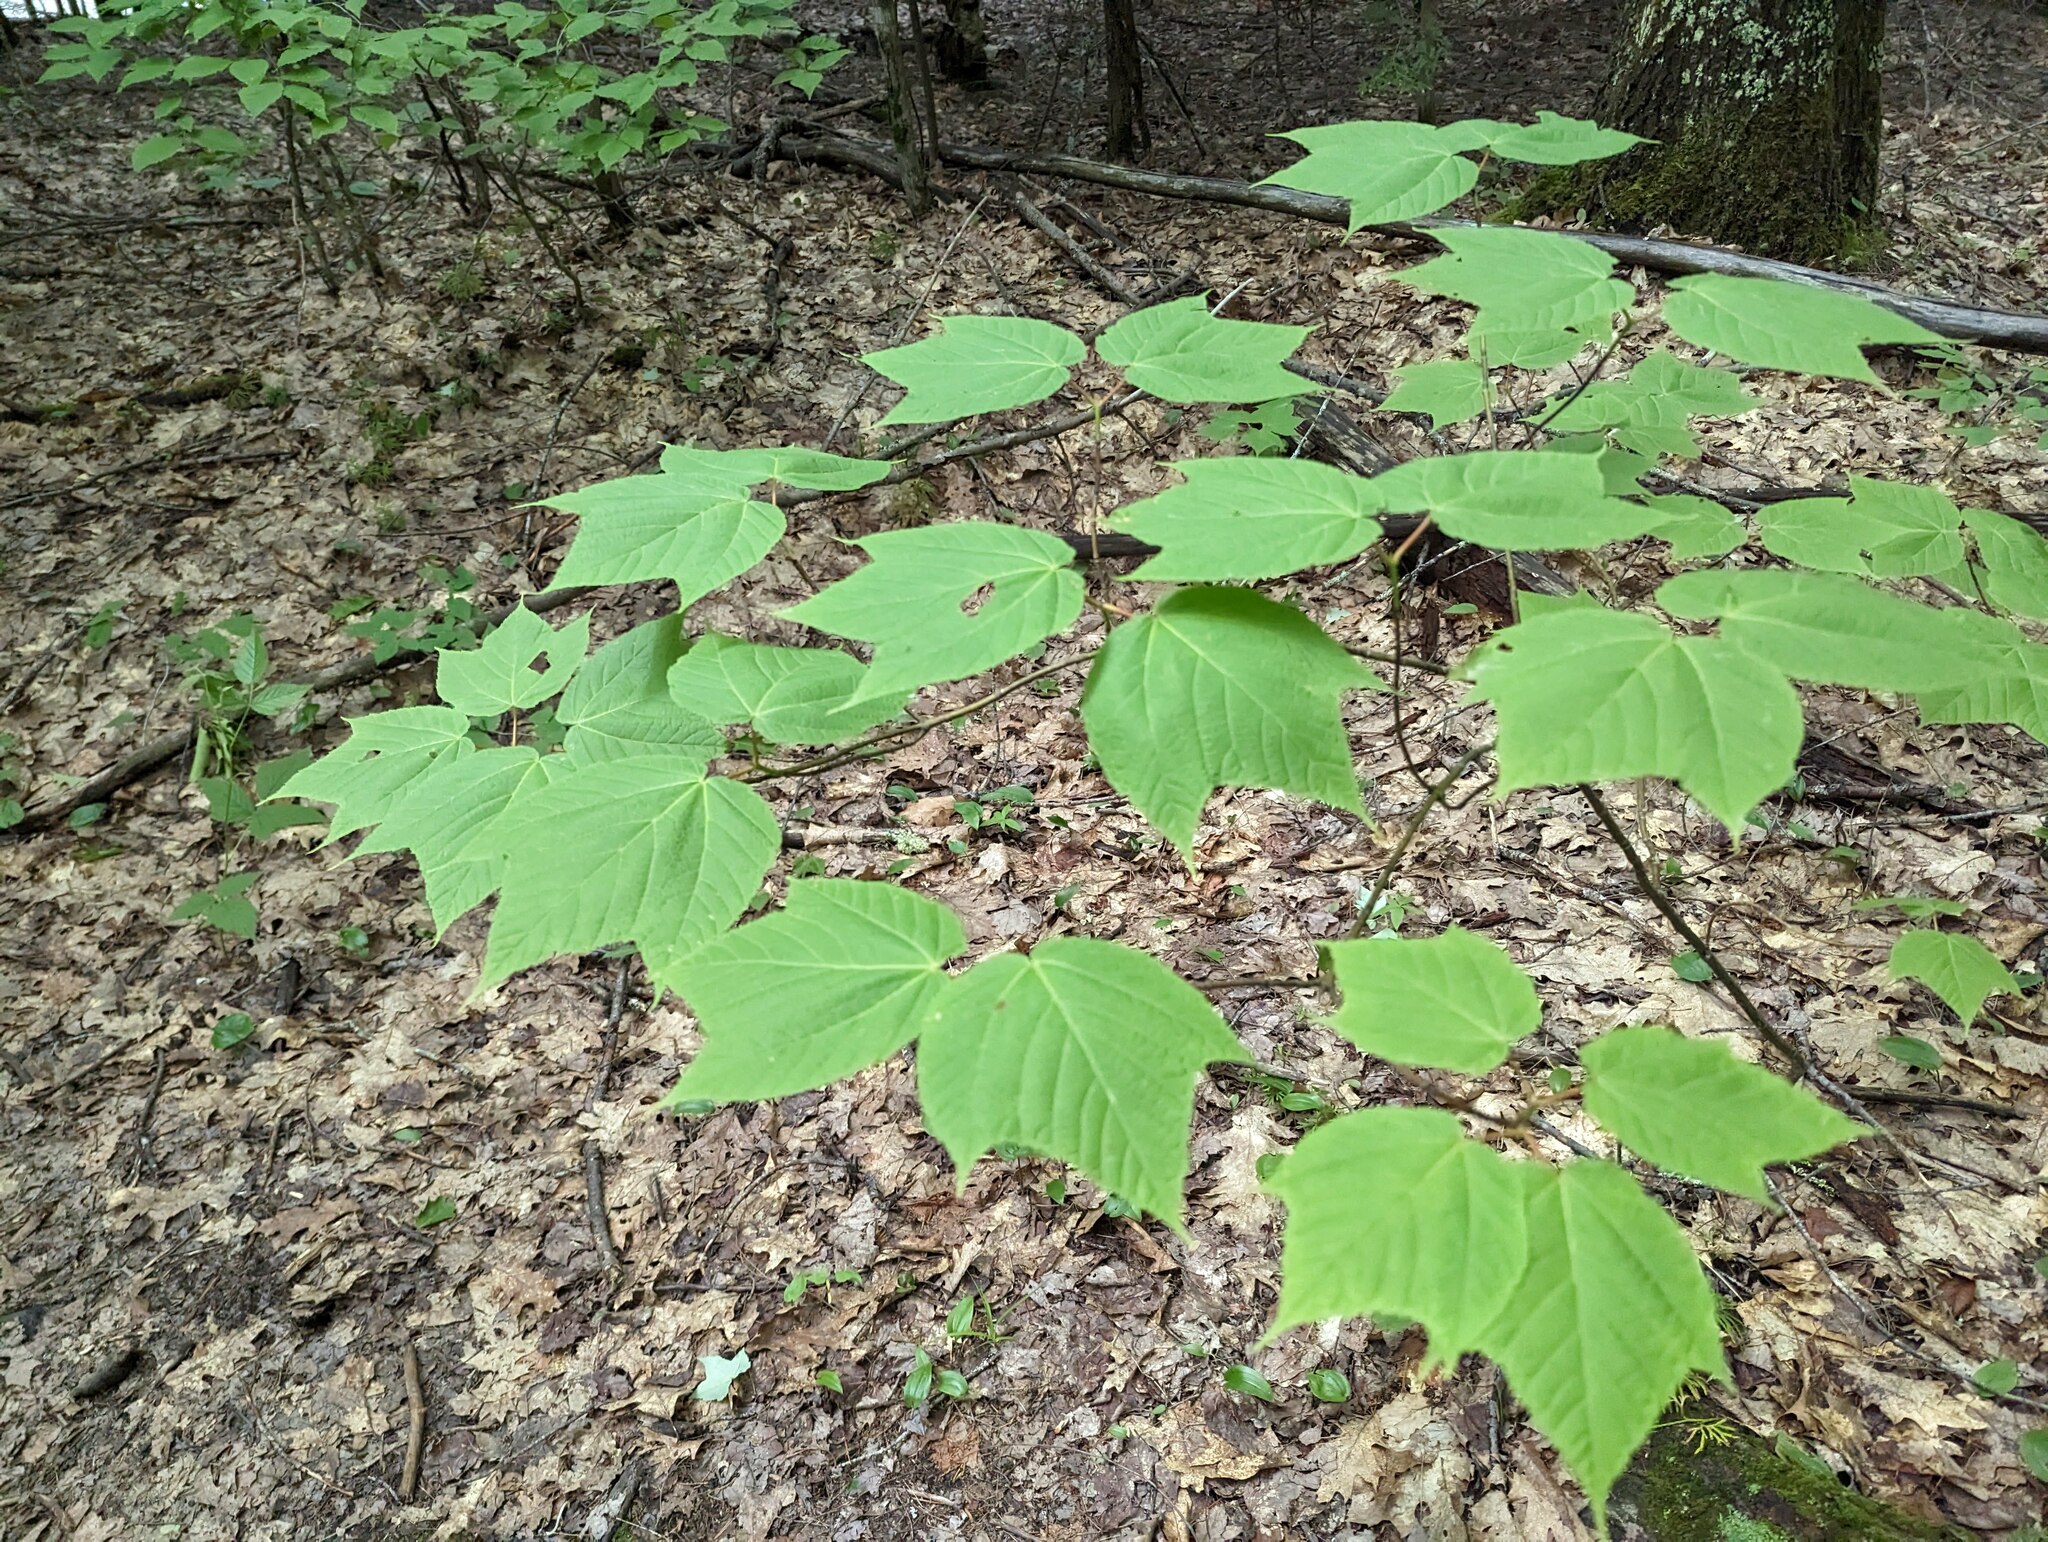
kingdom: Plantae
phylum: Tracheophyta
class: Magnoliopsida
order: Sapindales
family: Sapindaceae
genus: Acer
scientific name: Acer pensylvanicum
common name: Moosewood
